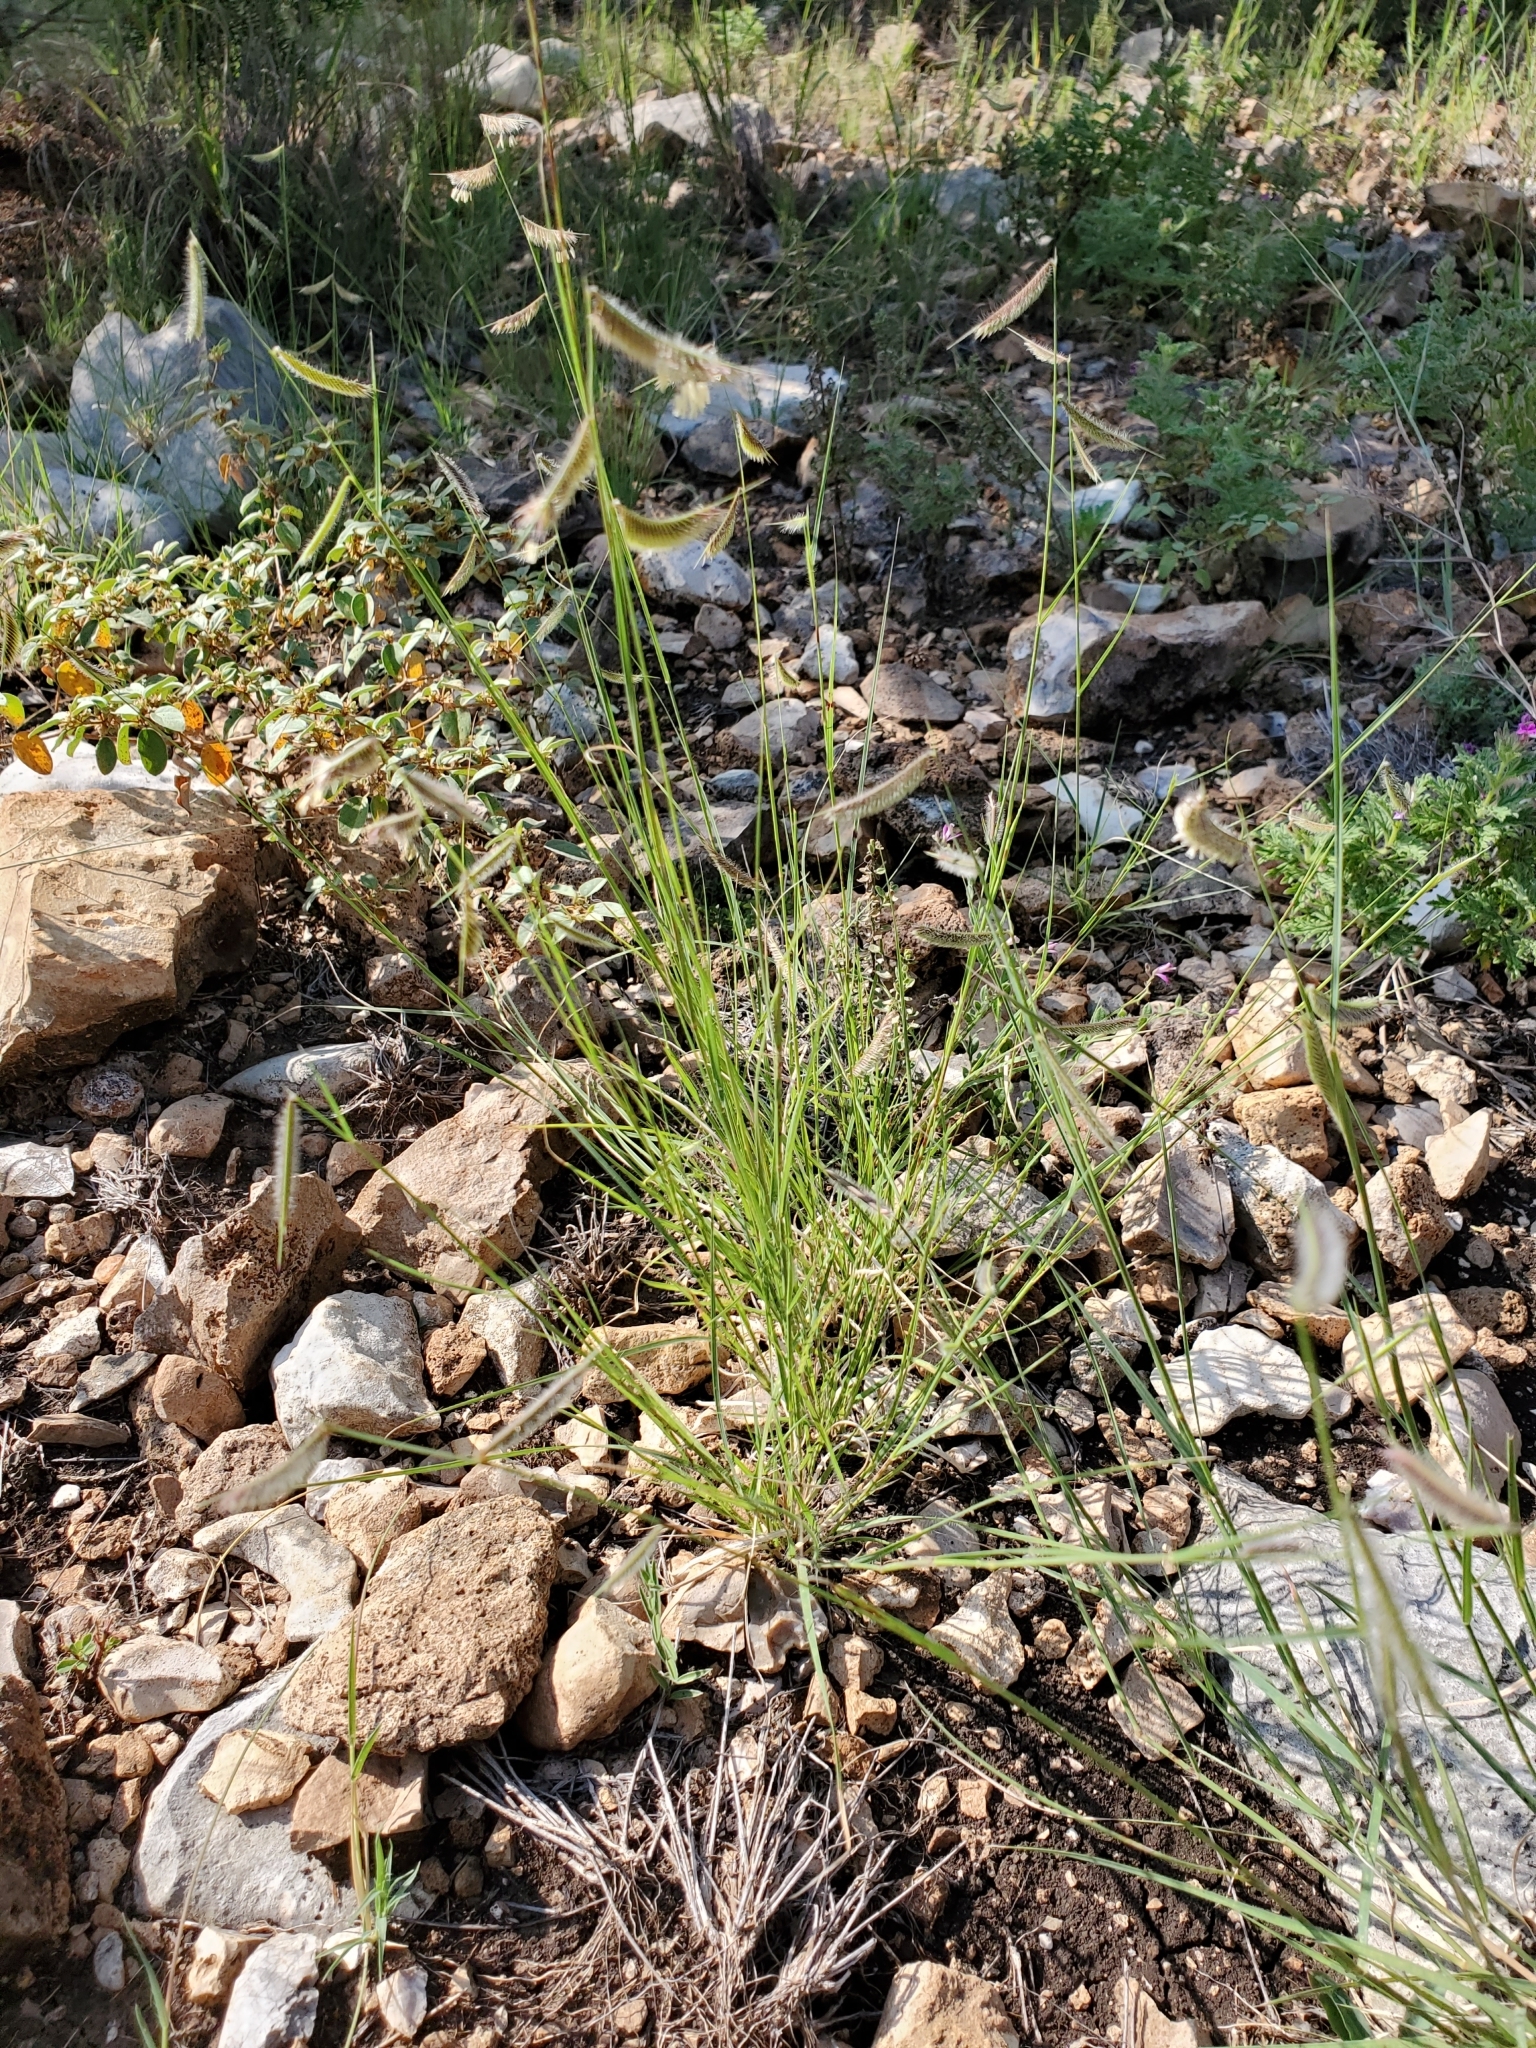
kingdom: Plantae
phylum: Tracheophyta
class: Liliopsida
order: Poales
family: Poaceae
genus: Bouteloua
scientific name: Bouteloua hirsuta
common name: Hairy grama
